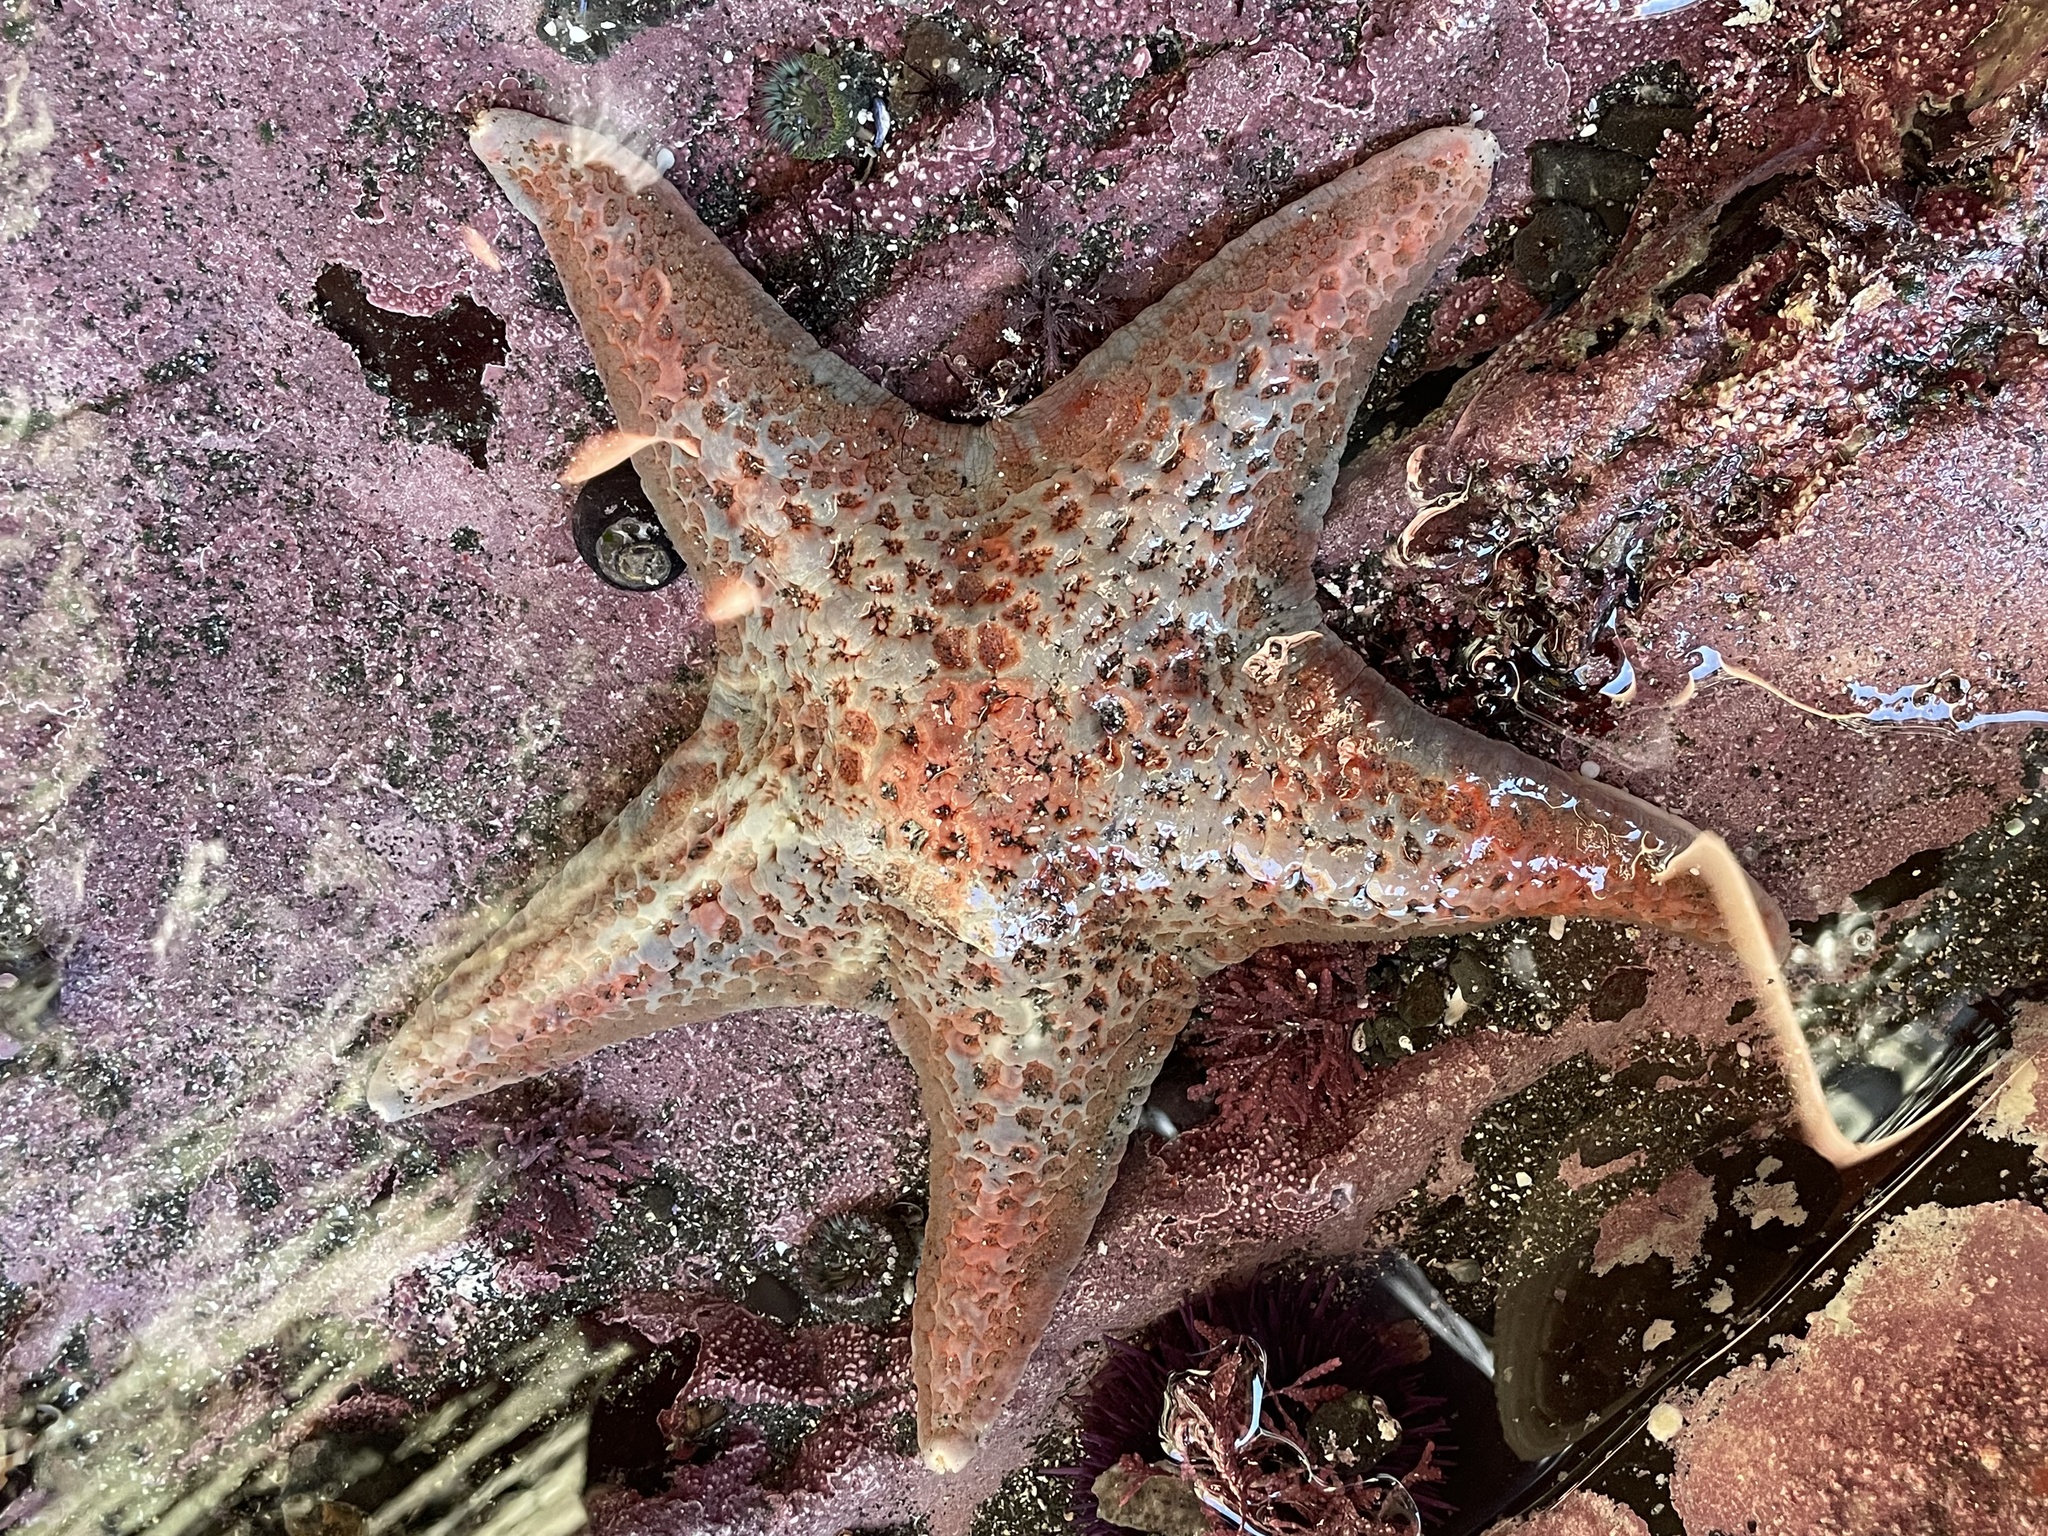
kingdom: Animalia
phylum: Echinodermata
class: Asteroidea
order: Valvatida
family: Asteropseidae
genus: Dermasterias
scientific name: Dermasterias imbricata
